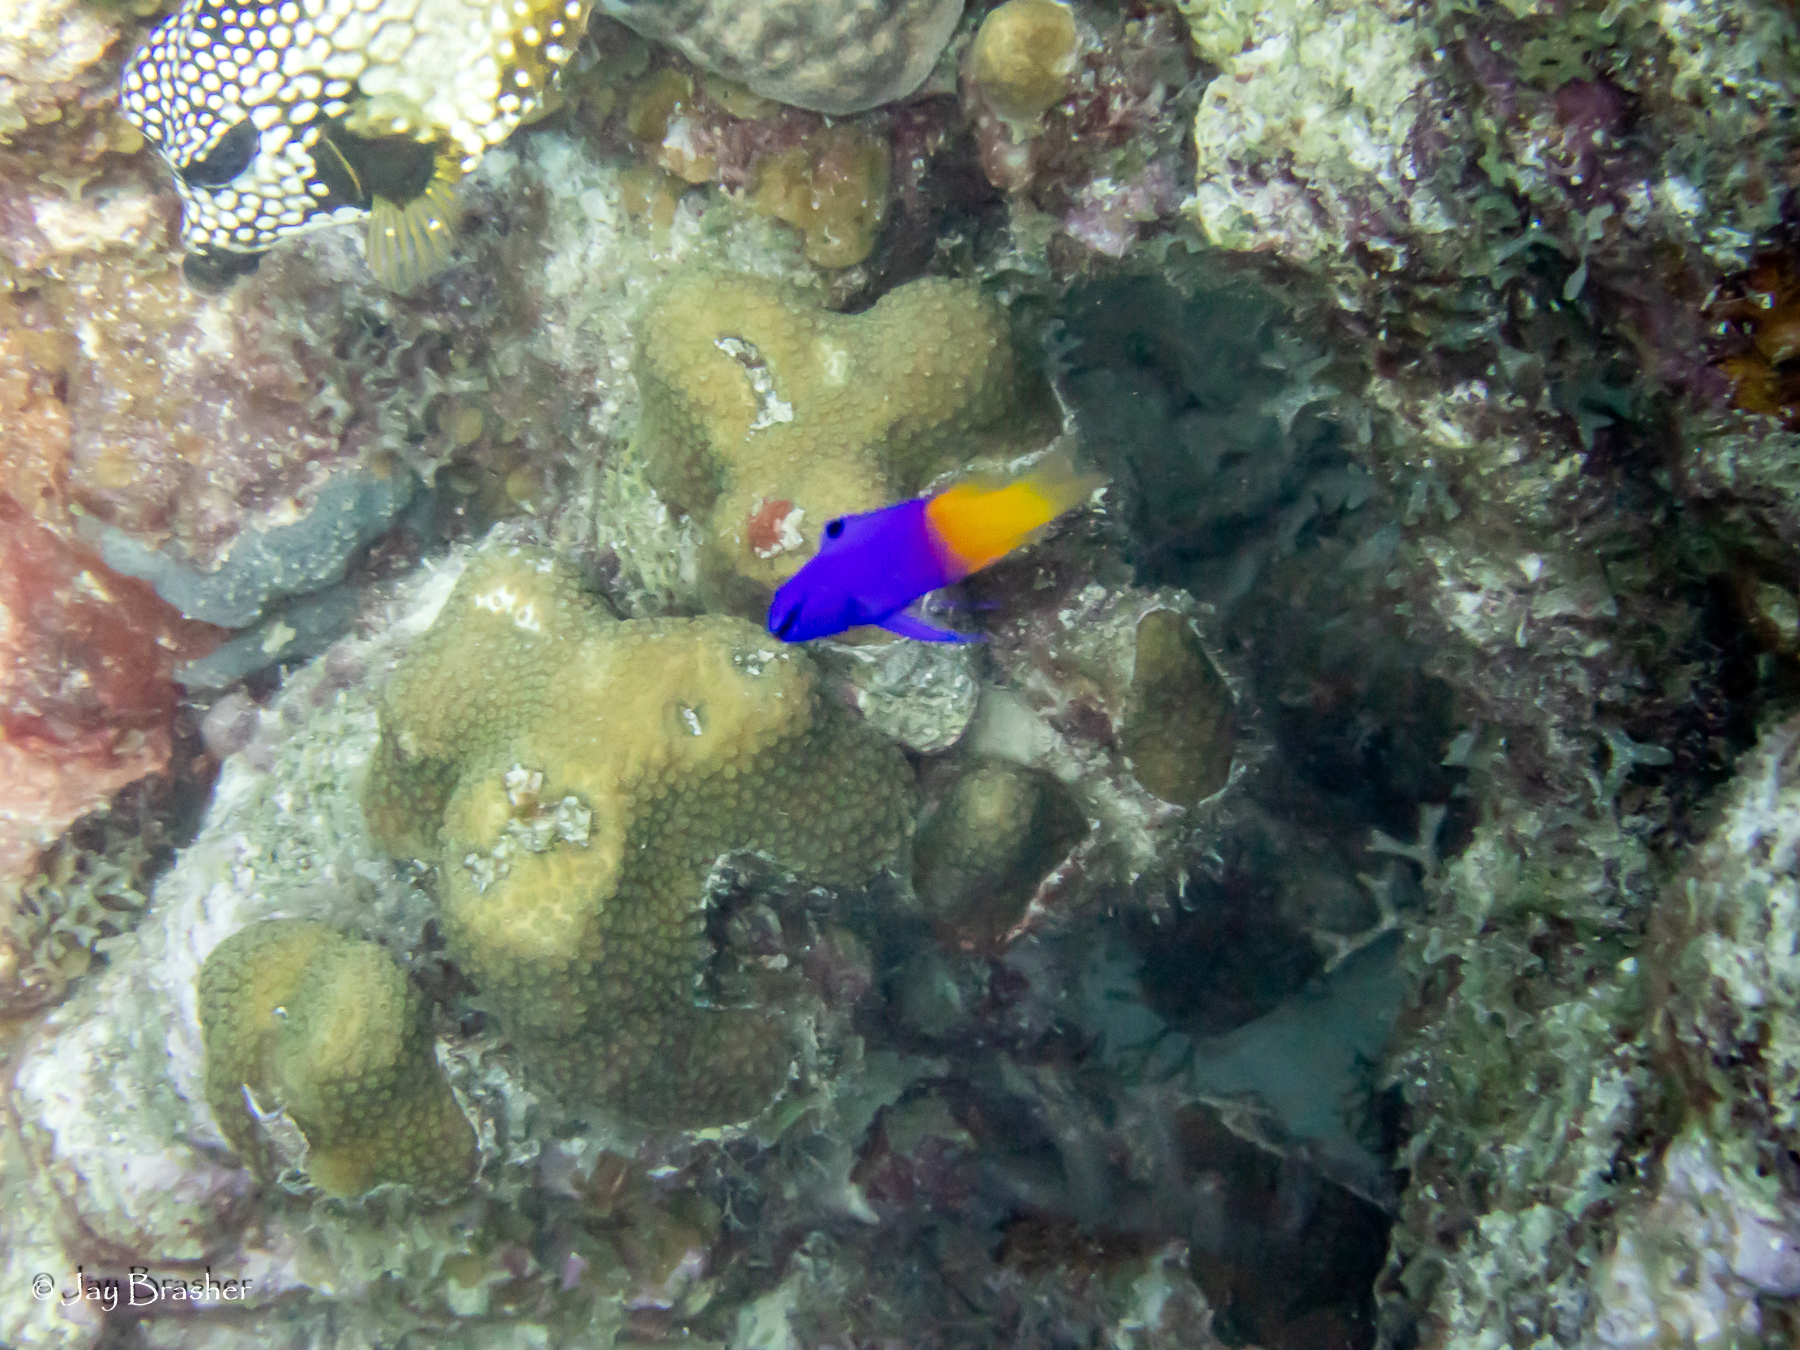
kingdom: Animalia
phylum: Chordata
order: Perciformes
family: Grammatidae
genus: Gramma
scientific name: Gramma loreto
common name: Fairy basslet
